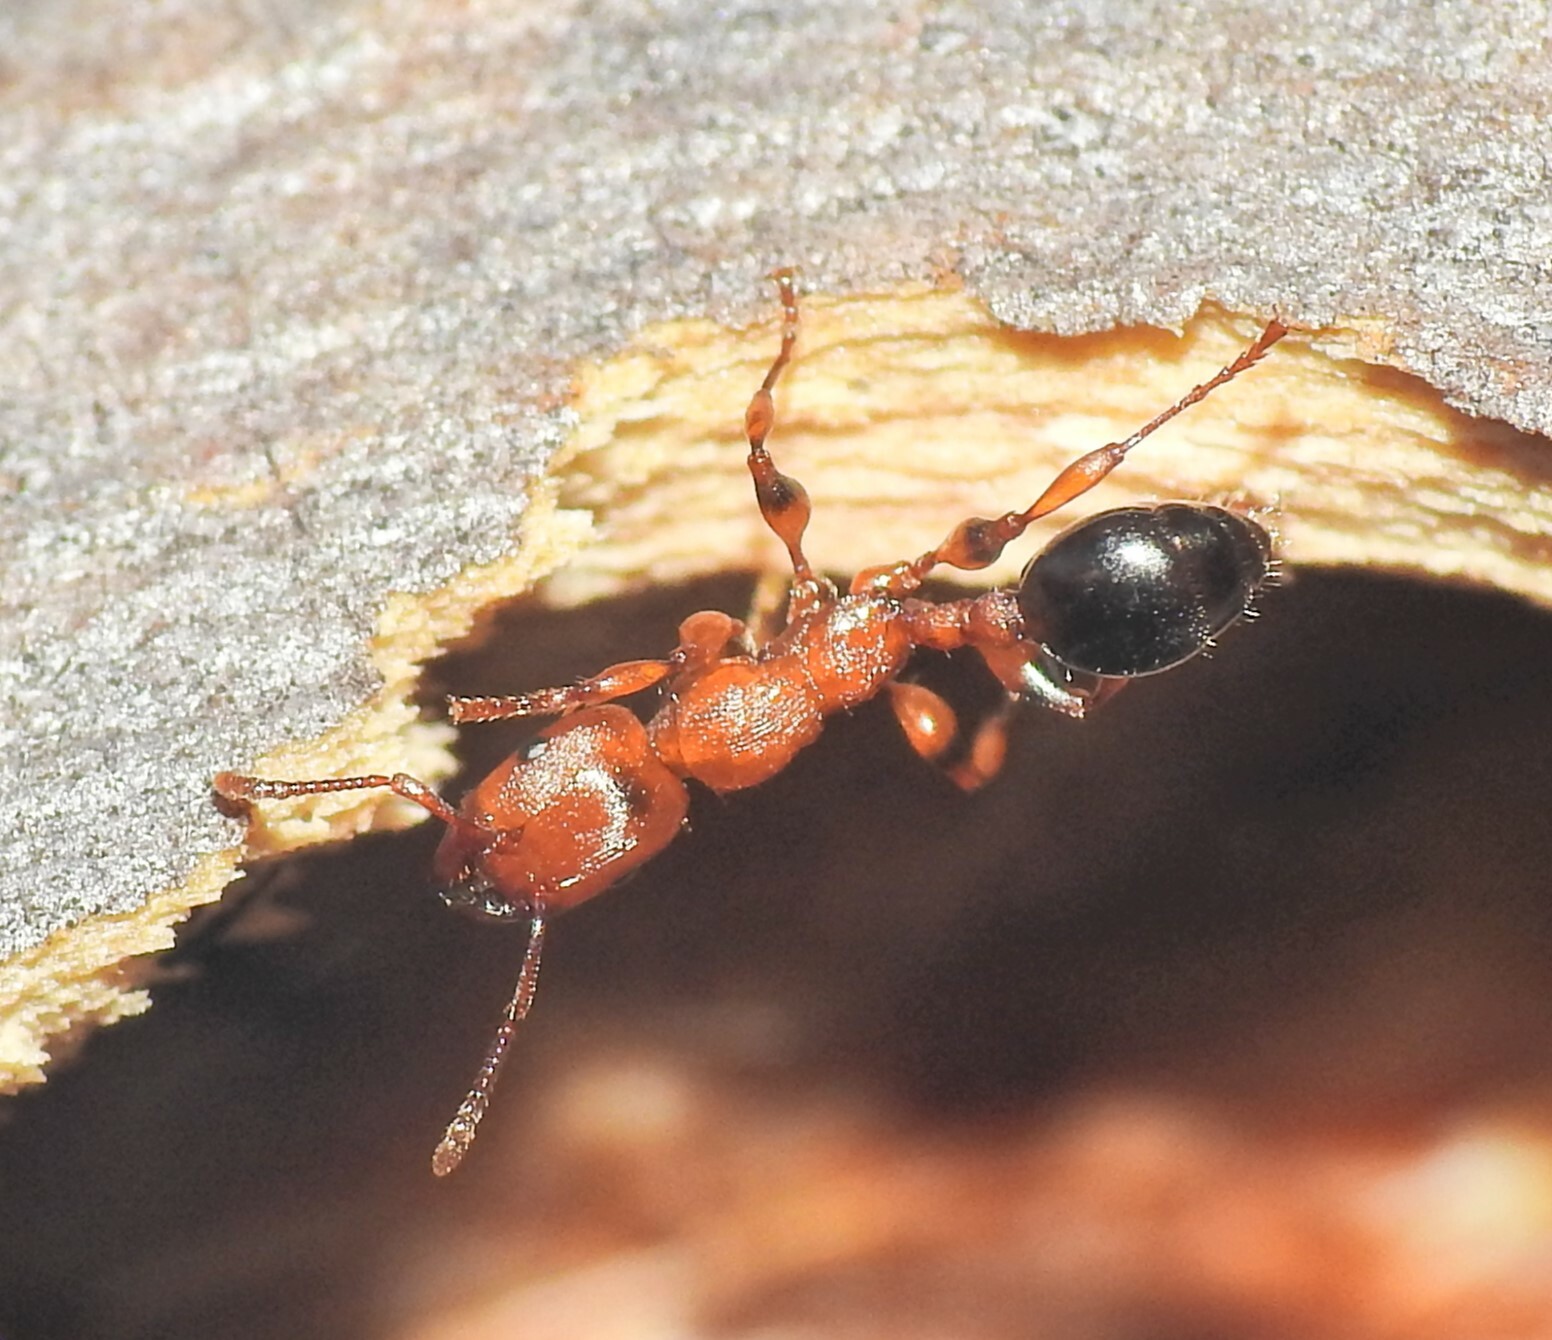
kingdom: Animalia
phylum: Arthropoda
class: Insecta
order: Hymenoptera
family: Formicidae
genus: Podomyrma
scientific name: Podomyrma gratiosa
